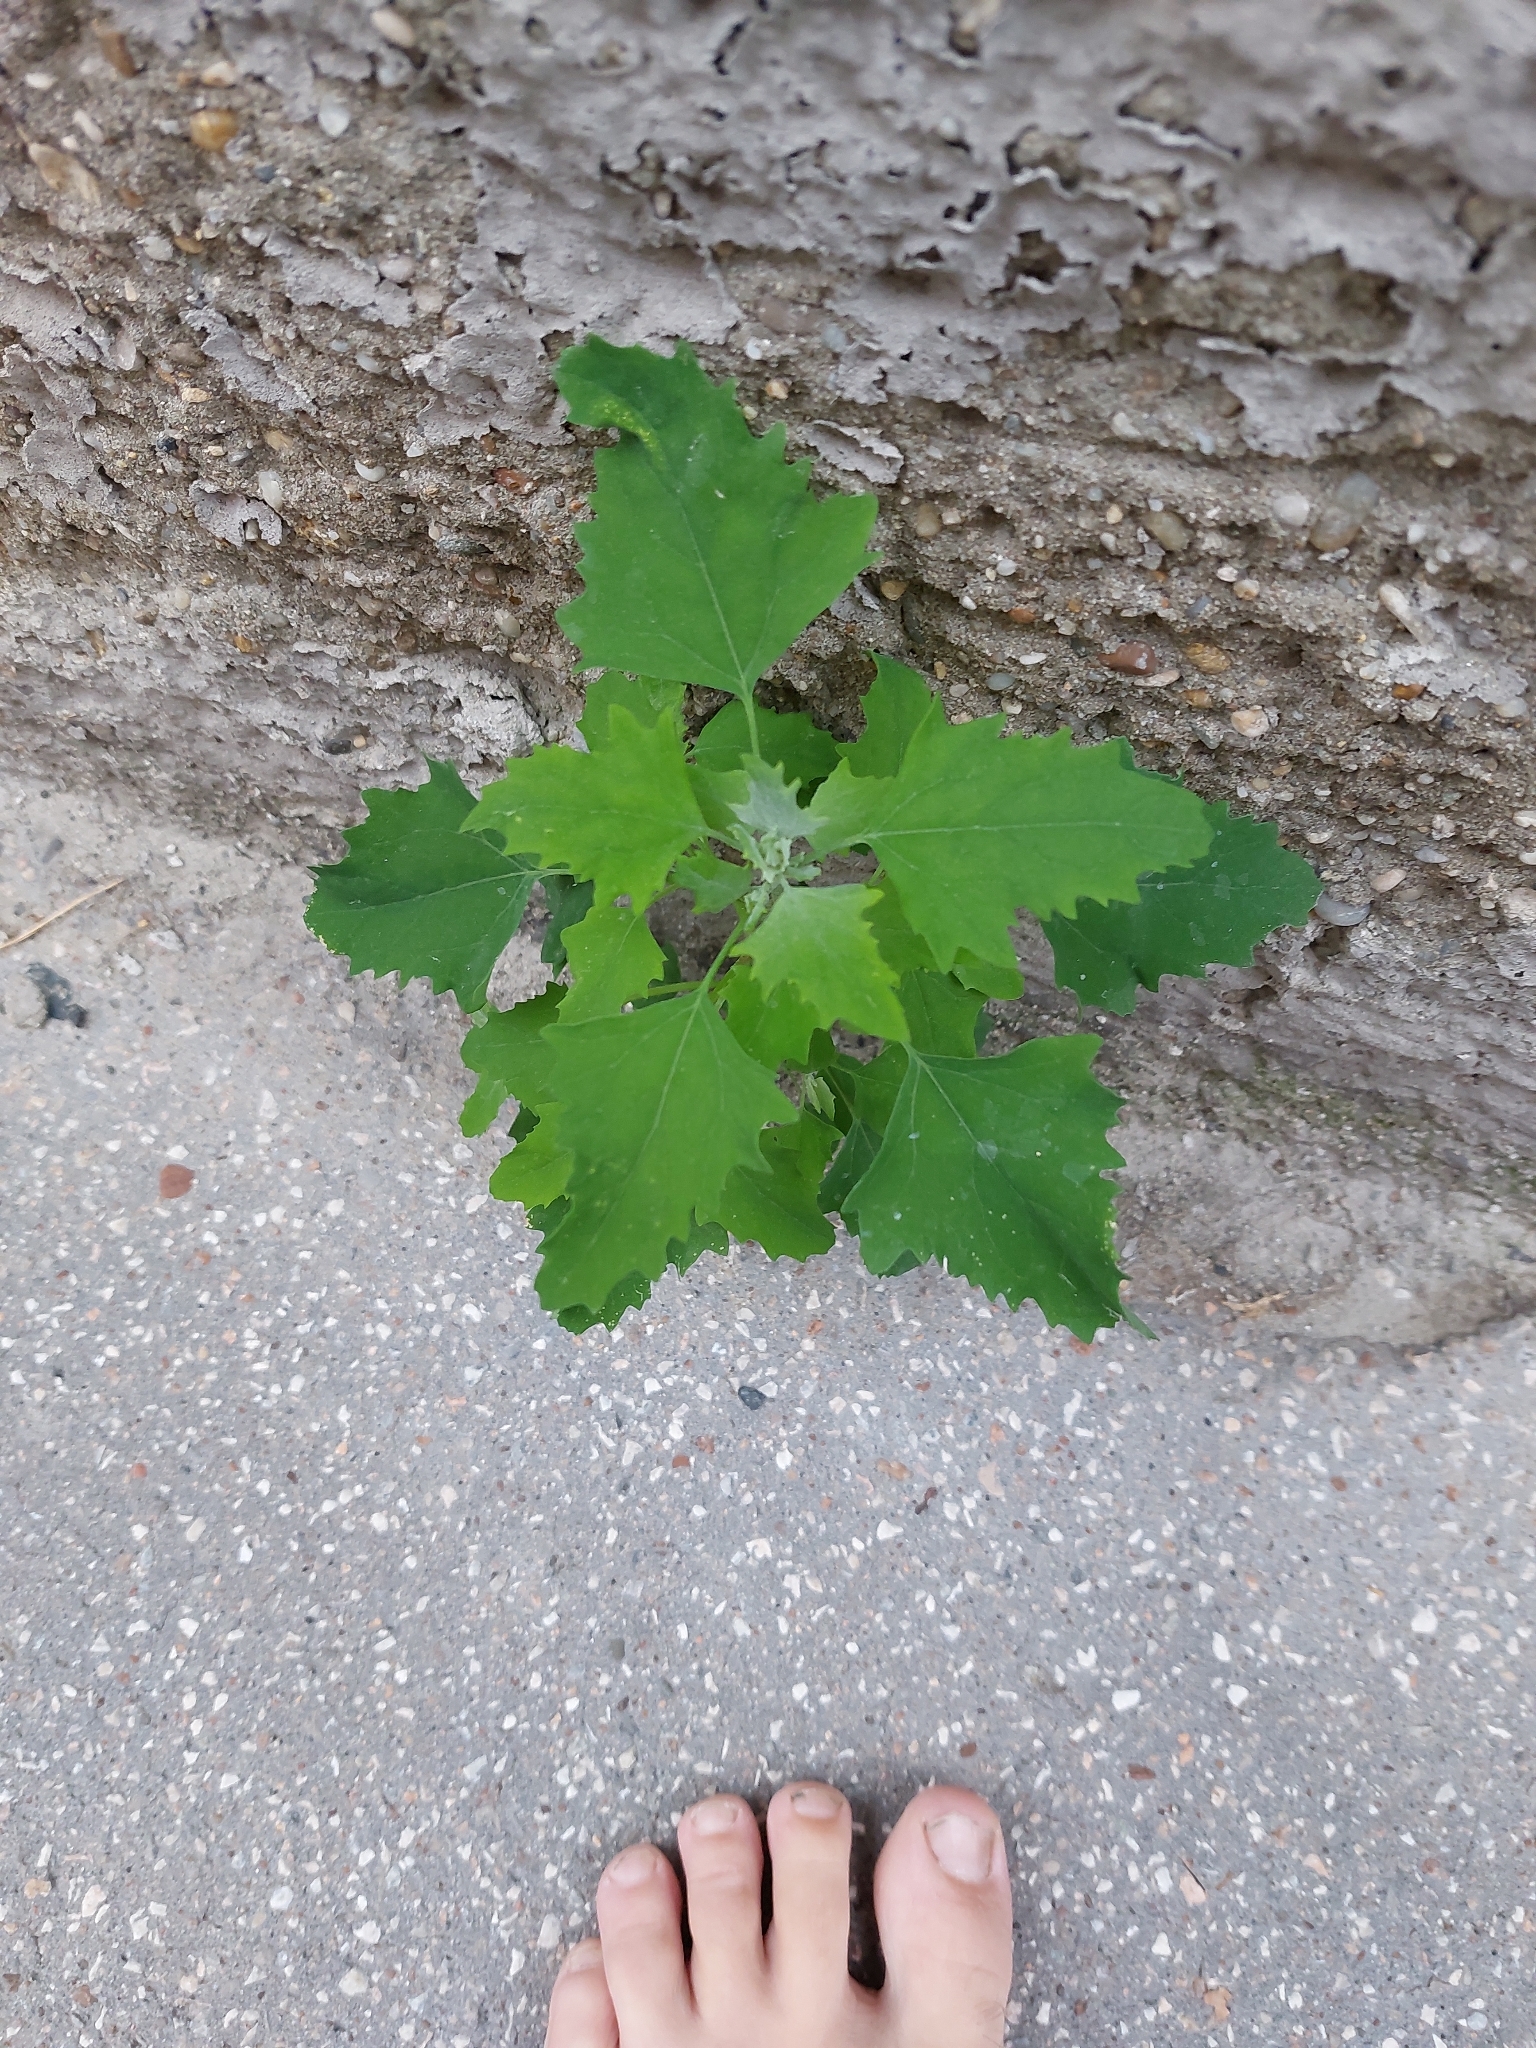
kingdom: Plantae
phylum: Tracheophyta
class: Magnoliopsida
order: Caryophyllales
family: Amaranthaceae
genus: Chenopodium
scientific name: Chenopodium album
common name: Fat-hen
